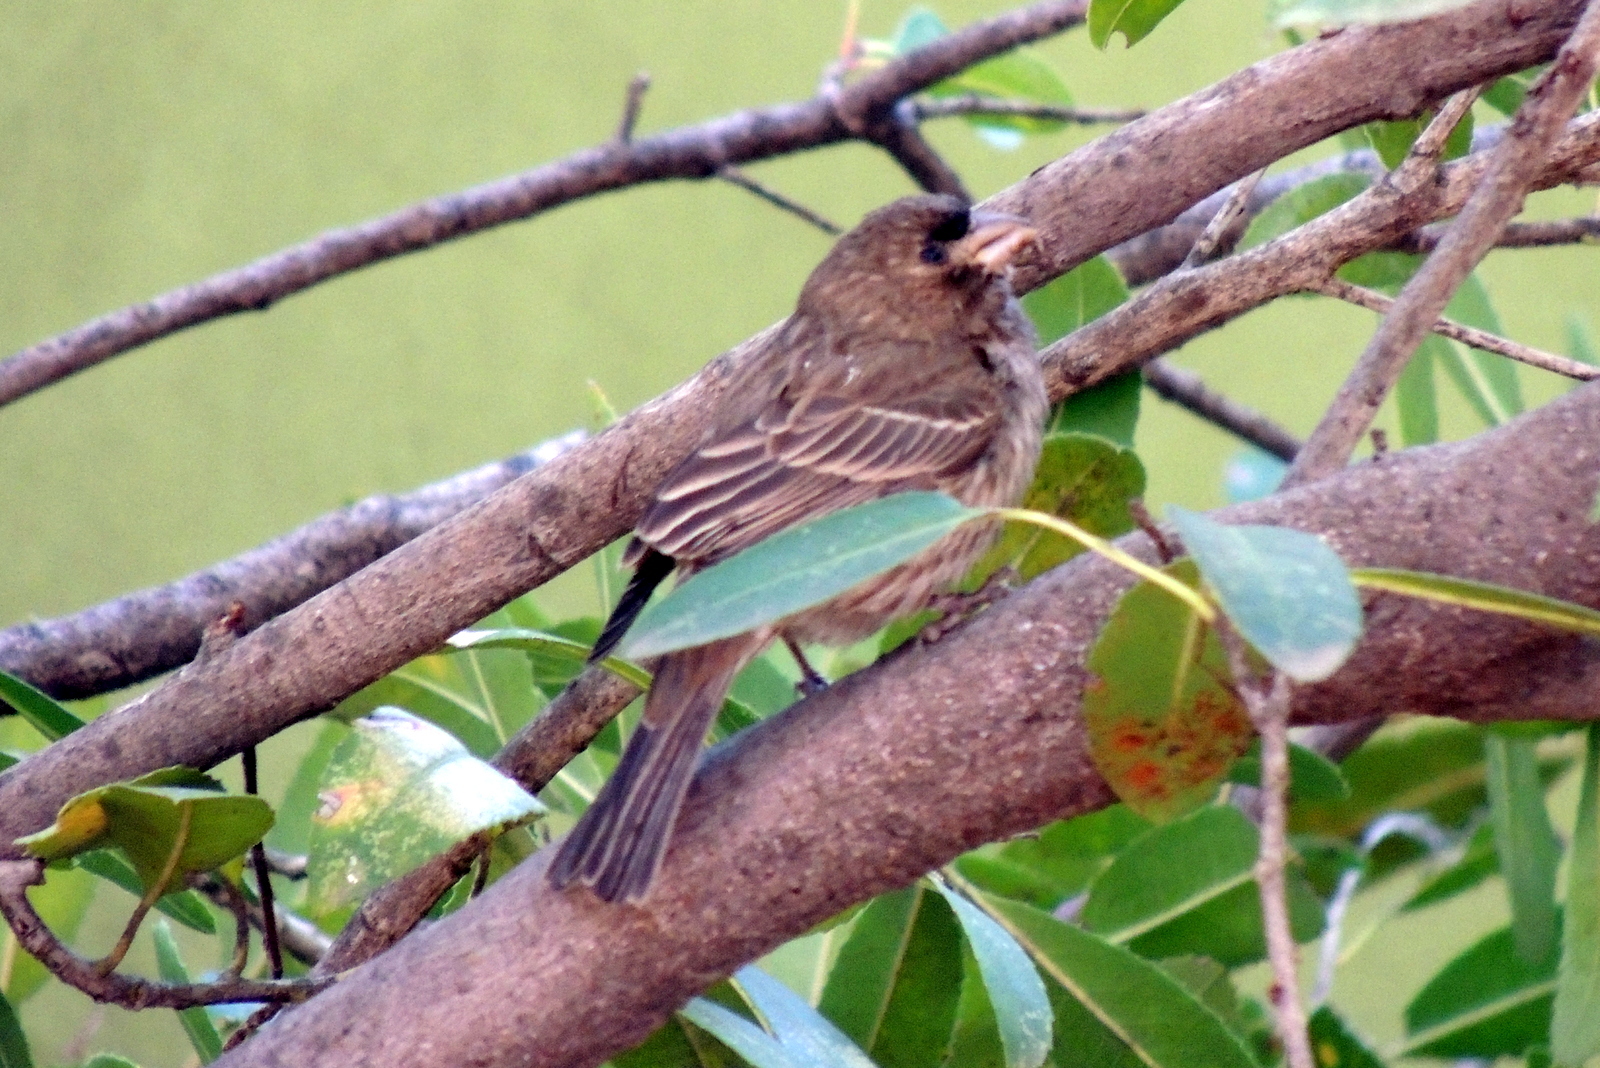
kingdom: Animalia
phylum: Chordata
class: Aves
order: Passeriformes
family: Fringillidae
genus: Haemorhous
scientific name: Haemorhous mexicanus
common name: House finch
